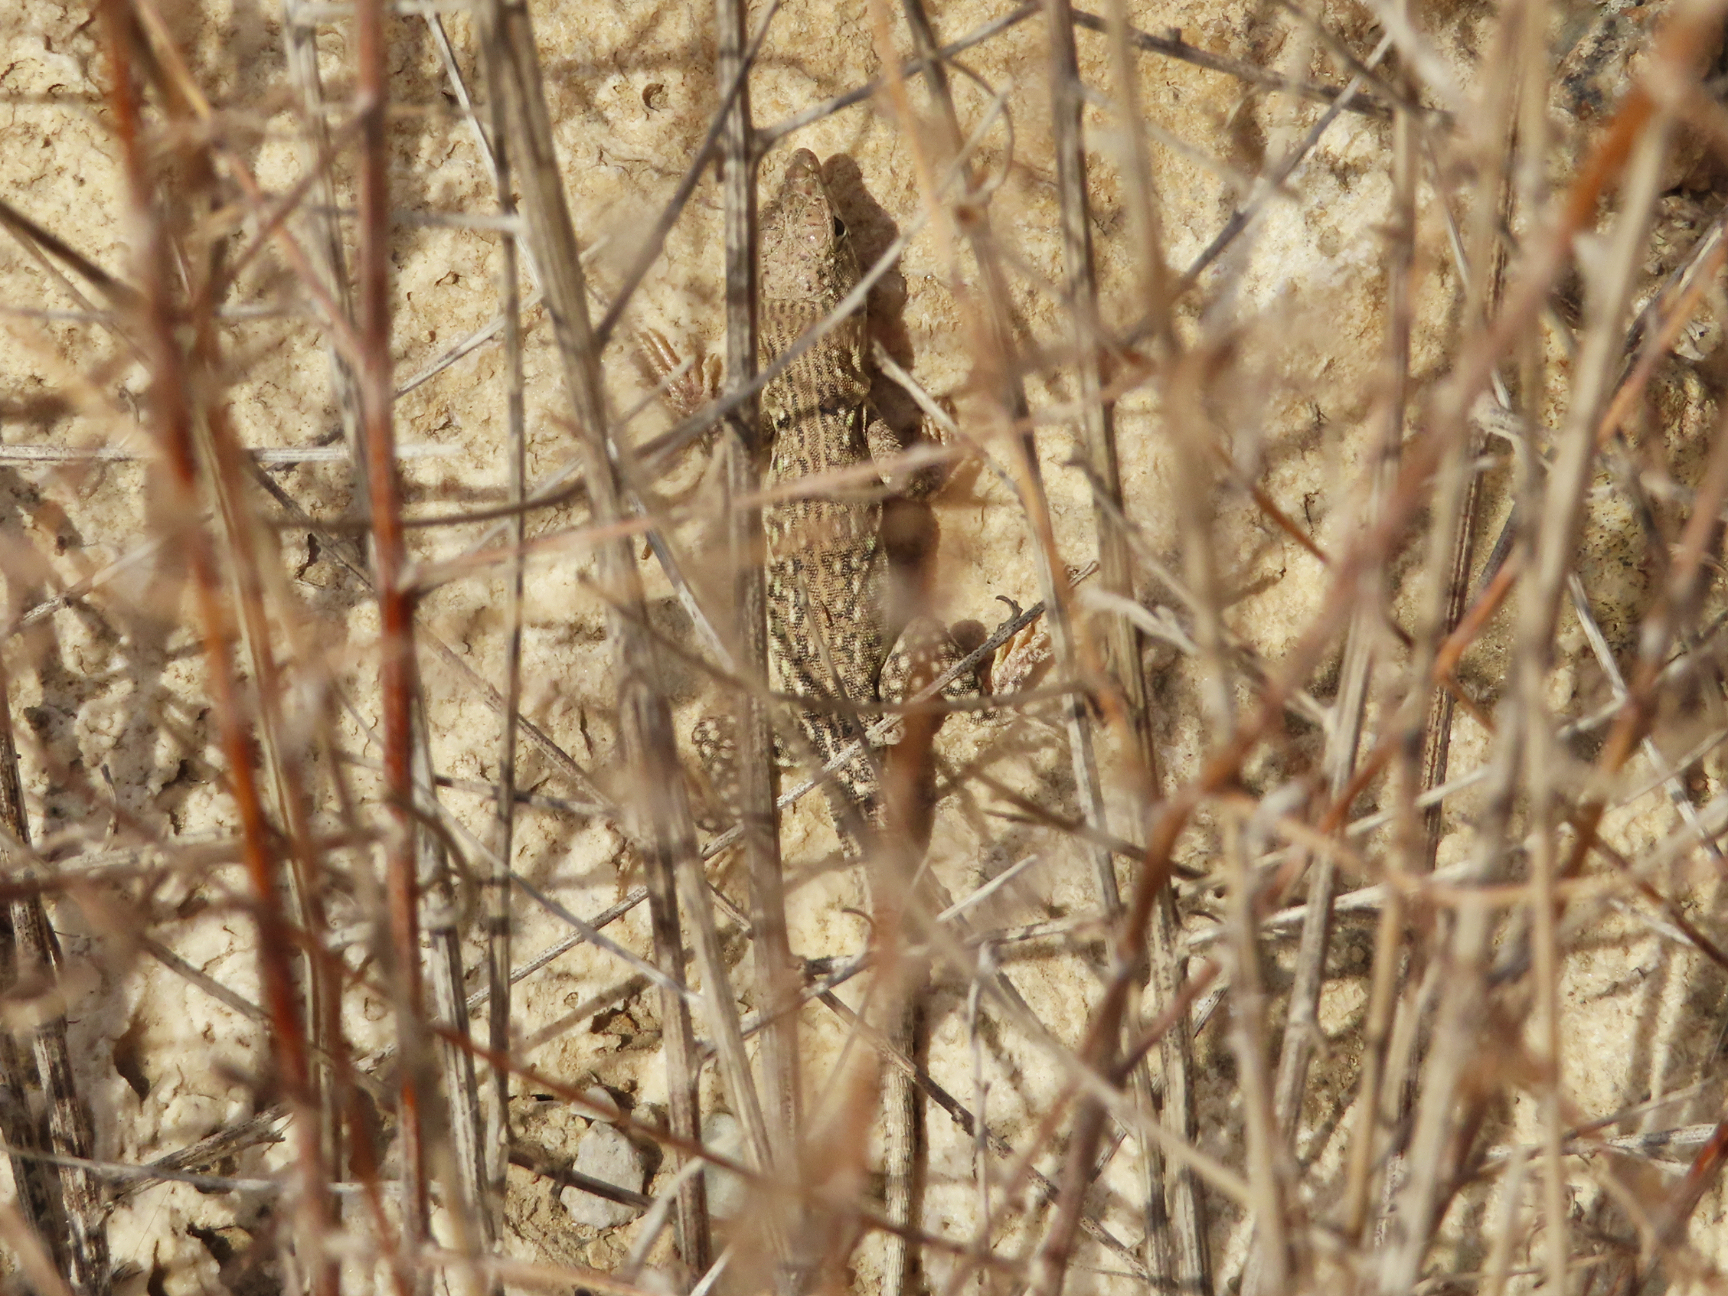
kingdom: Animalia
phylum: Chordata
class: Squamata
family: Lacertidae
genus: Eremias
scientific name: Eremias strauchi
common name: Strauch's racerunner
